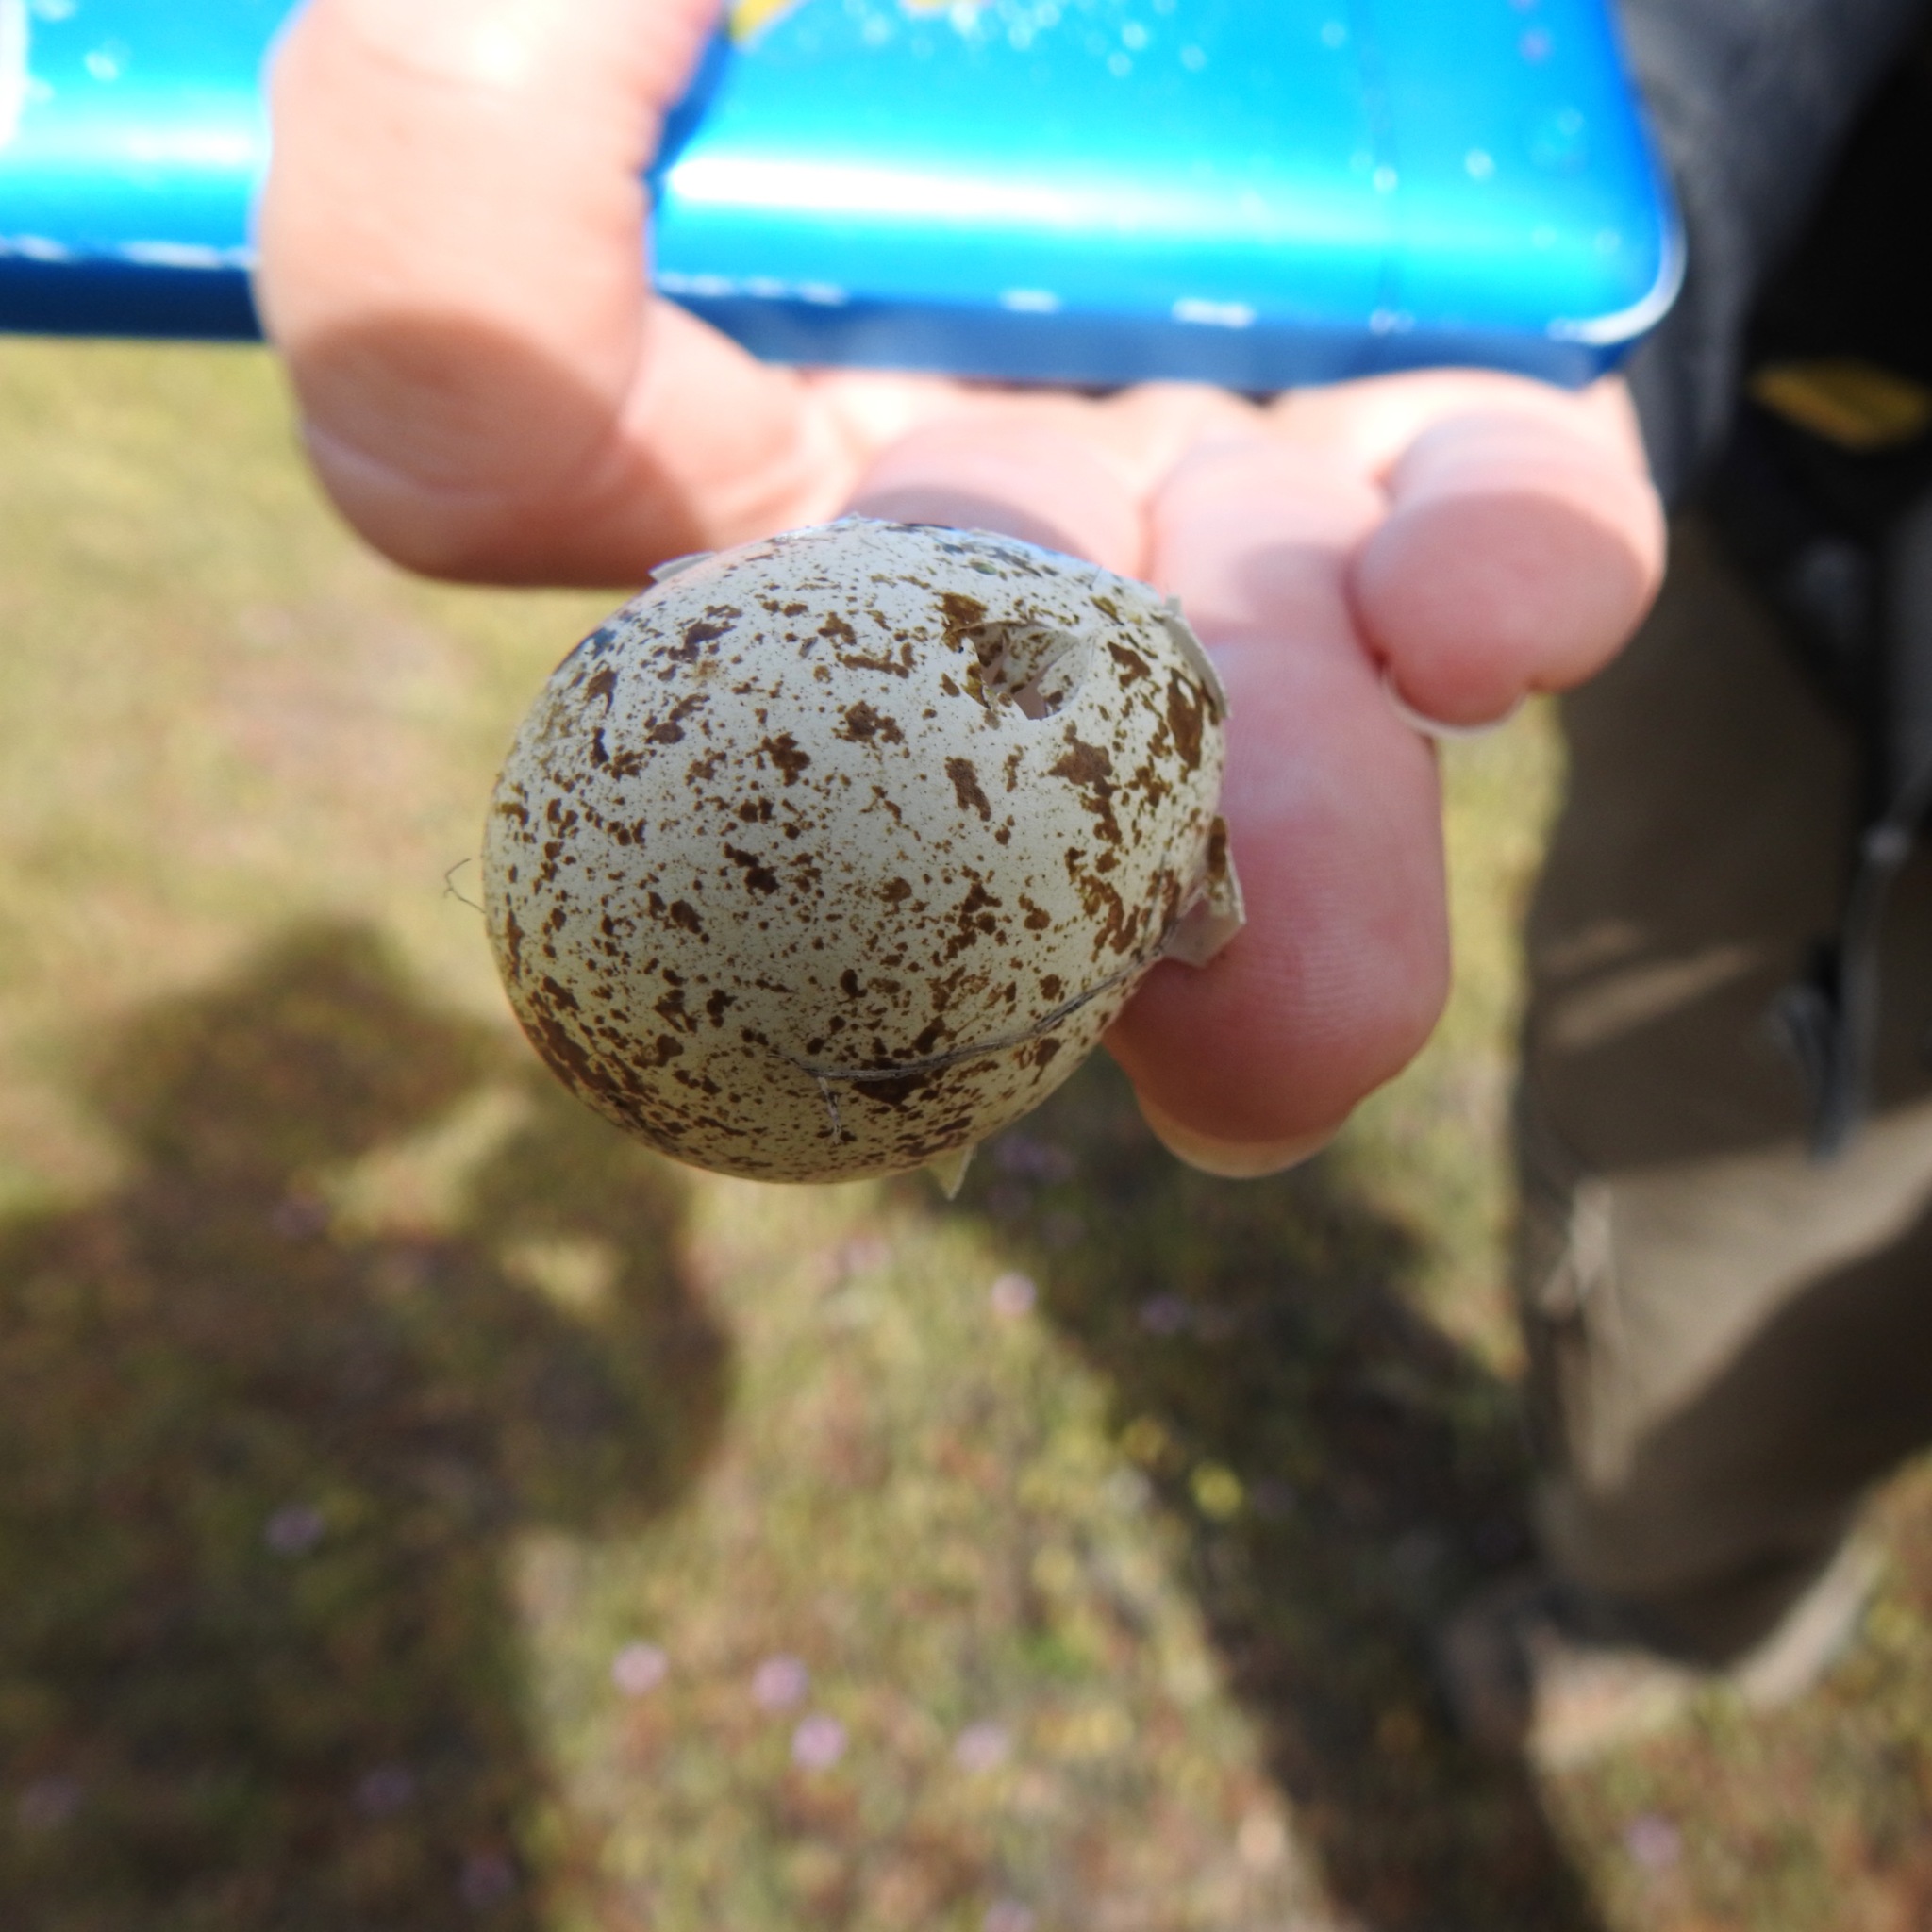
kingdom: Animalia
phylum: Chordata
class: Aves
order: Galliformes
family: Odontophoridae
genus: Callipepla
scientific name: Callipepla californica
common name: California quail
